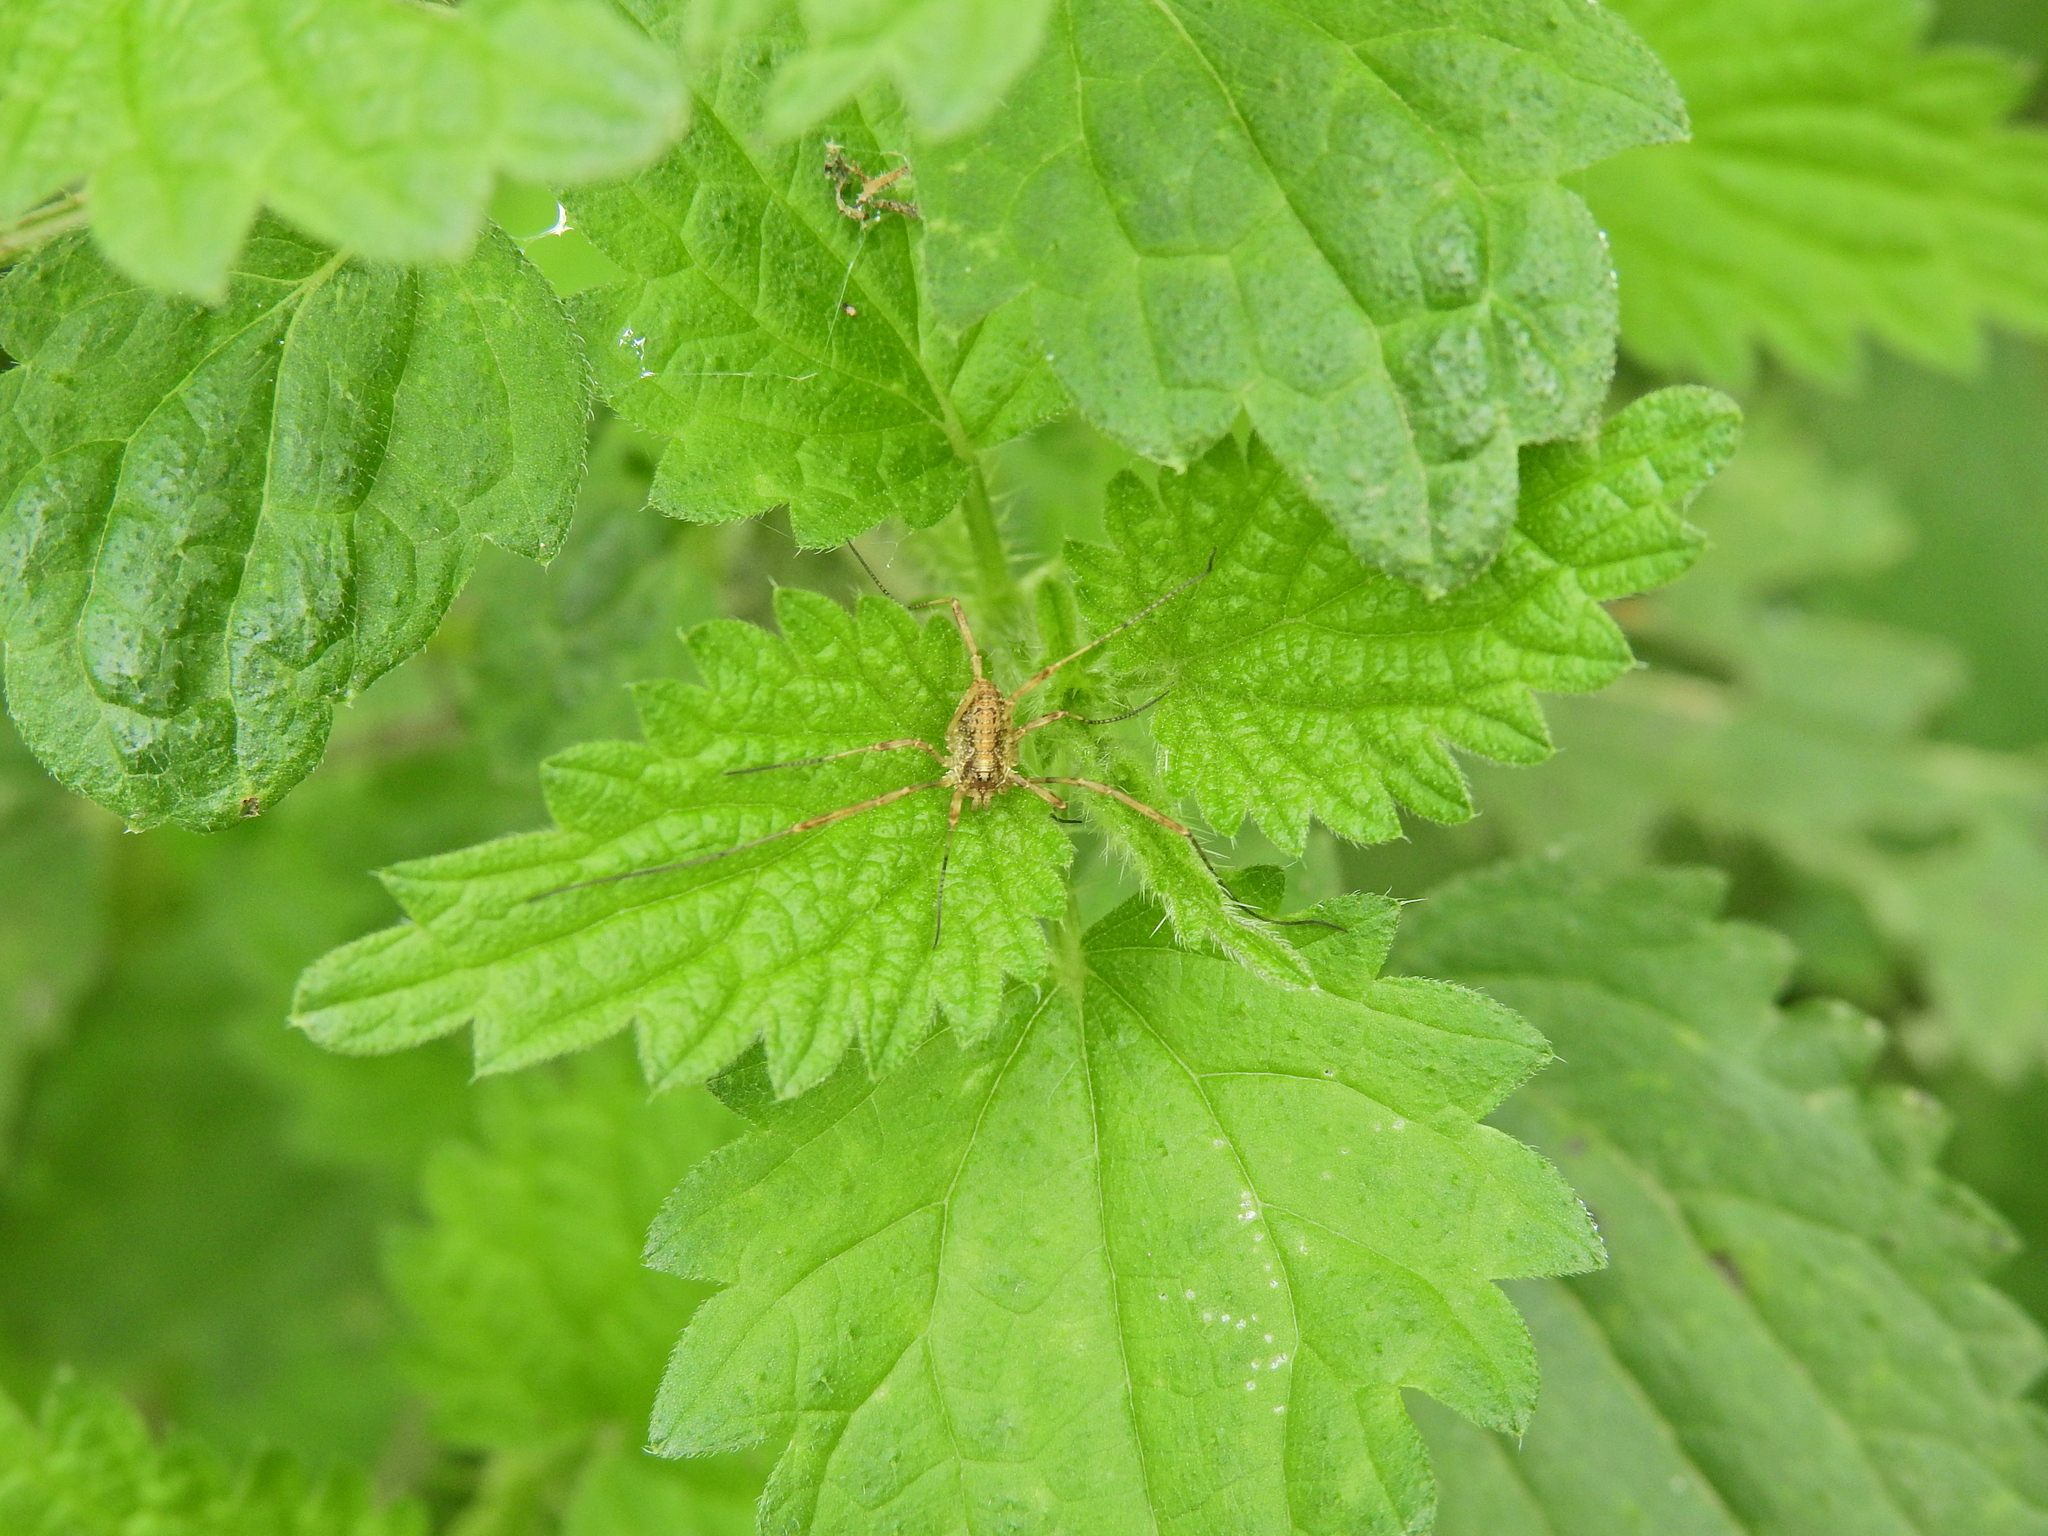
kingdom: Animalia
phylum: Arthropoda
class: Arachnida
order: Opiliones
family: Phalangiidae
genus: Paroligolophus
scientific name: Paroligolophus agrestis
